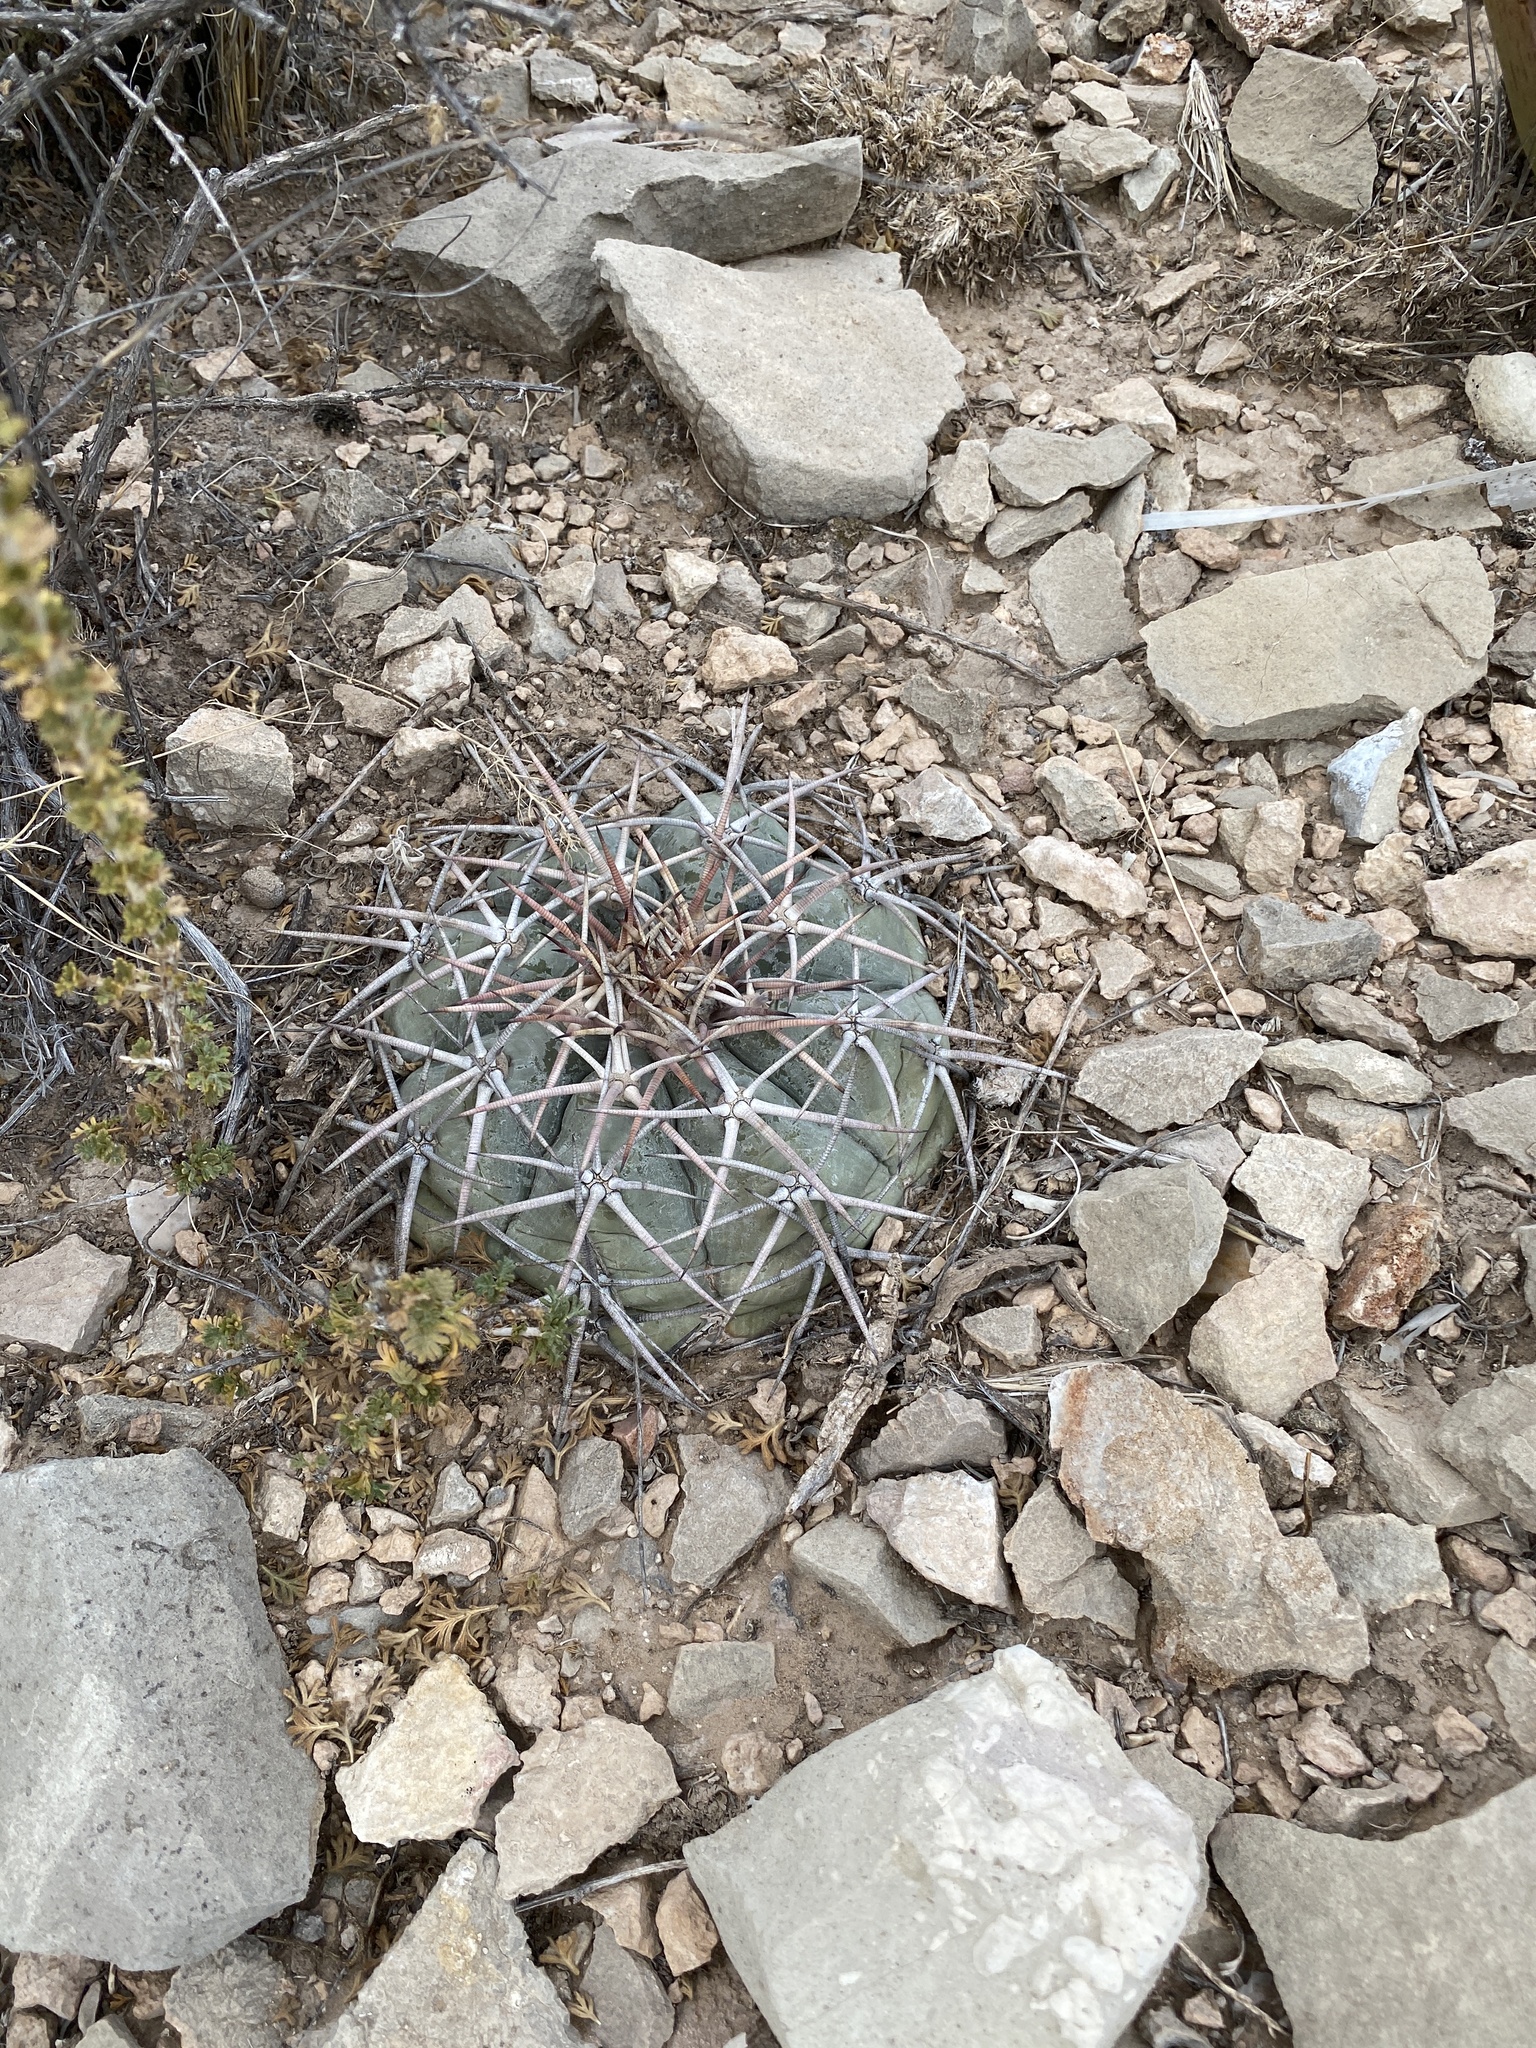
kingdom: Plantae
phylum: Tracheophyta
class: Magnoliopsida
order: Caryophyllales
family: Cactaceae
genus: Echinocactus
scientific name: Echinocactus horizonthalonius
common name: Devilshead
